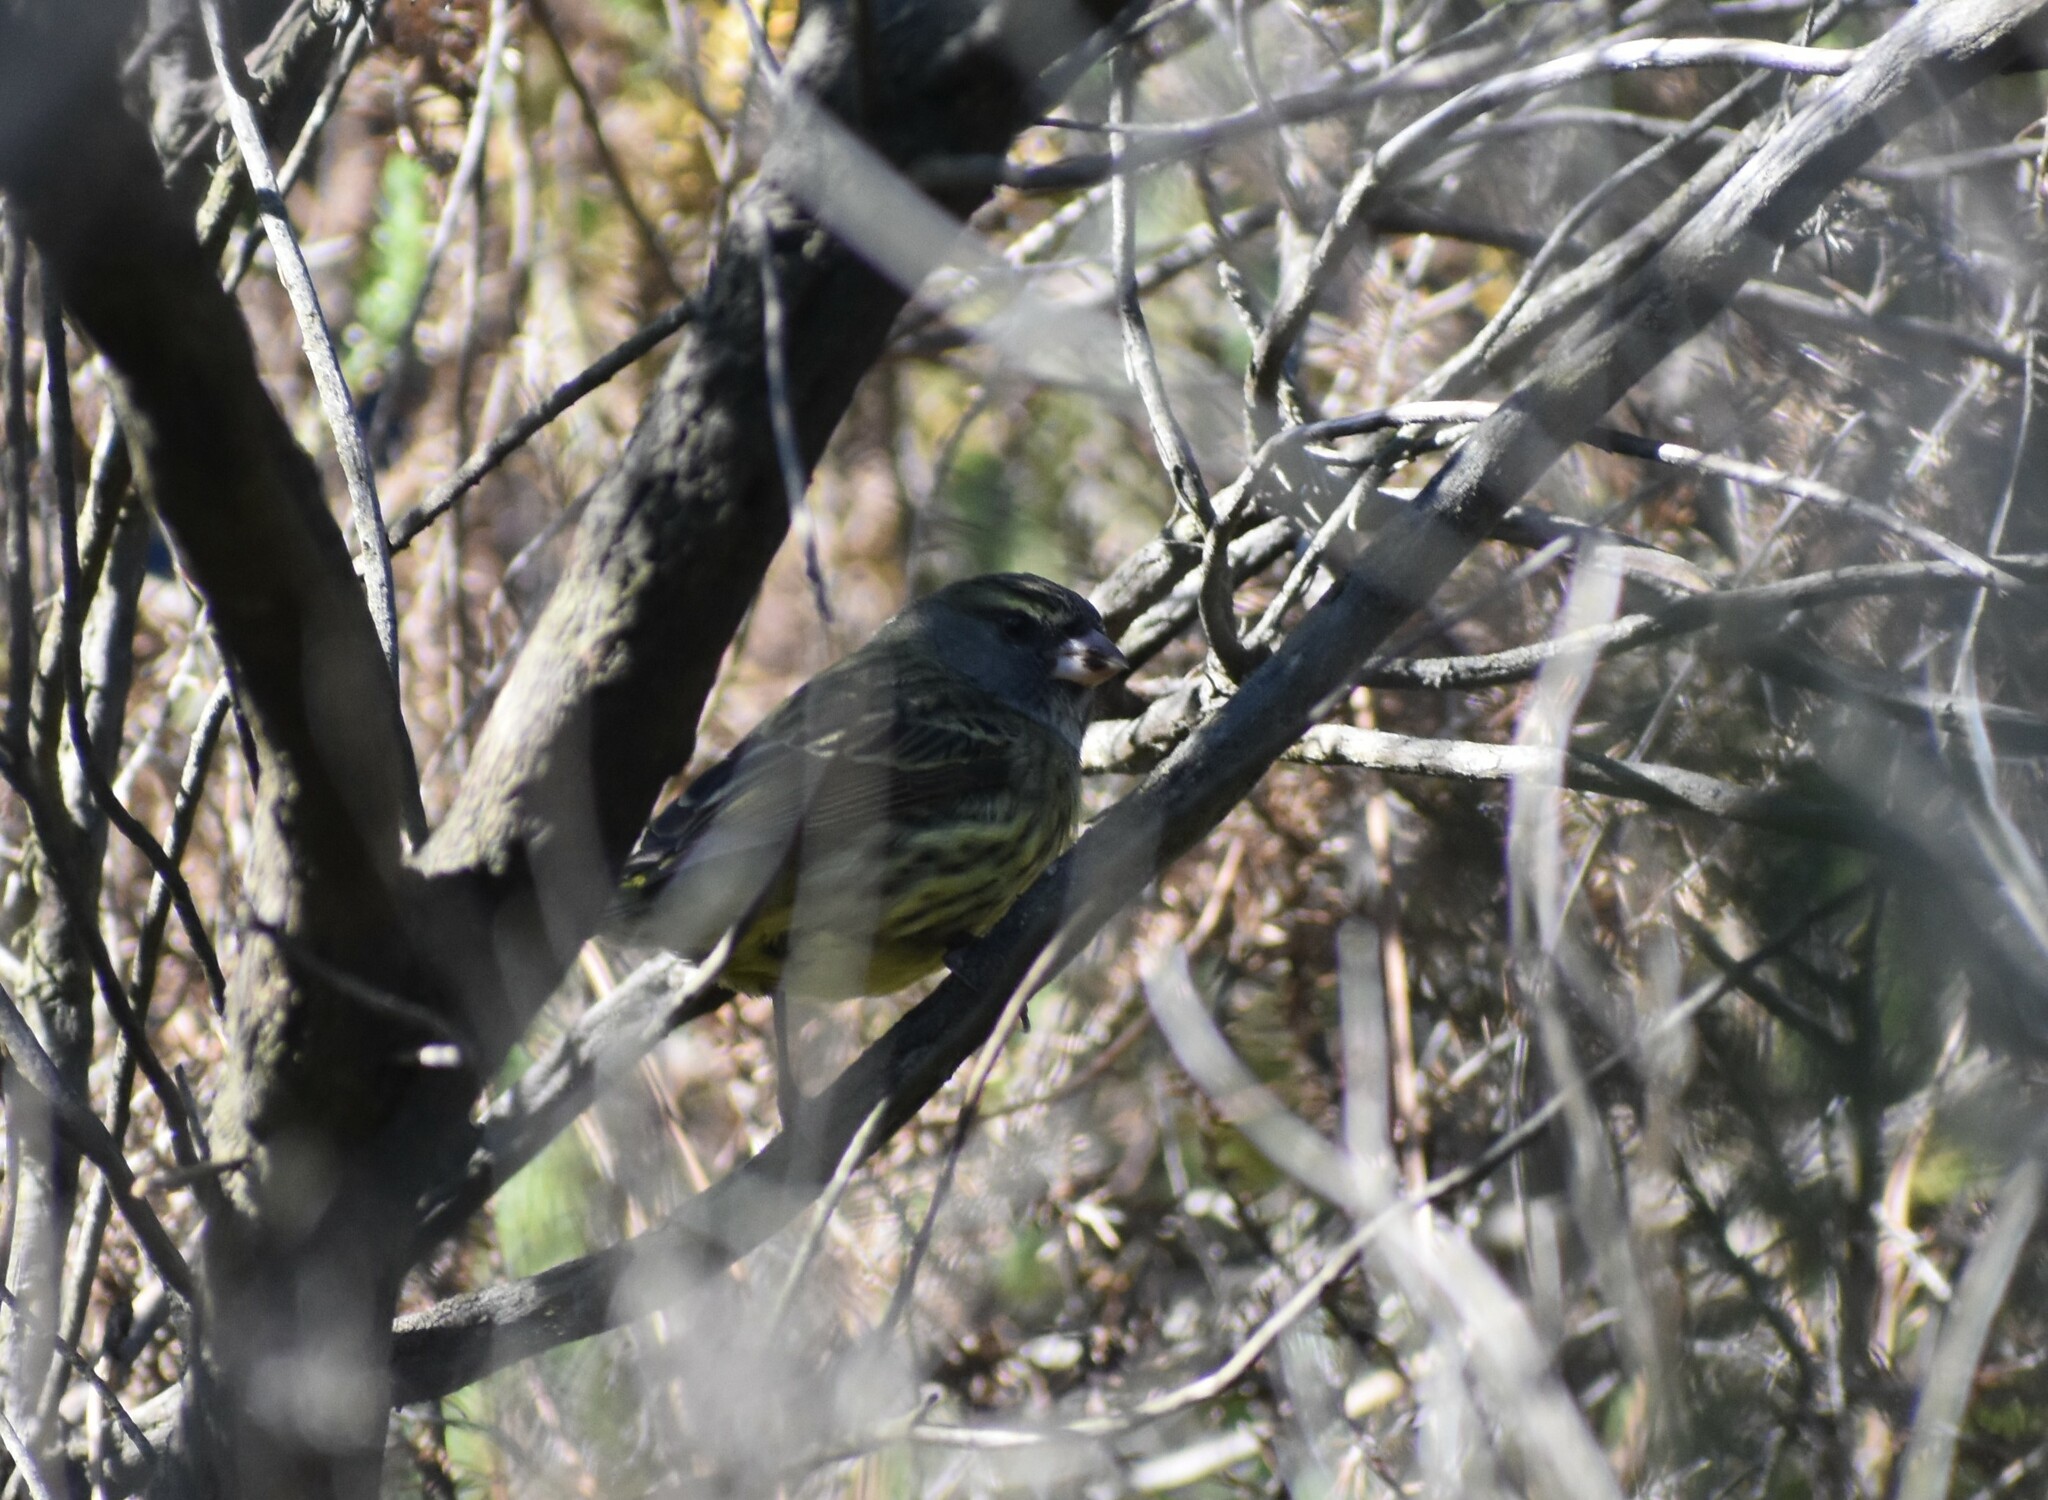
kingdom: Animalia
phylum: Chordata
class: Aves
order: Passeriformes
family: Fringillidae
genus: Crithagra
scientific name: Crithagra scotops
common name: Forest canary
